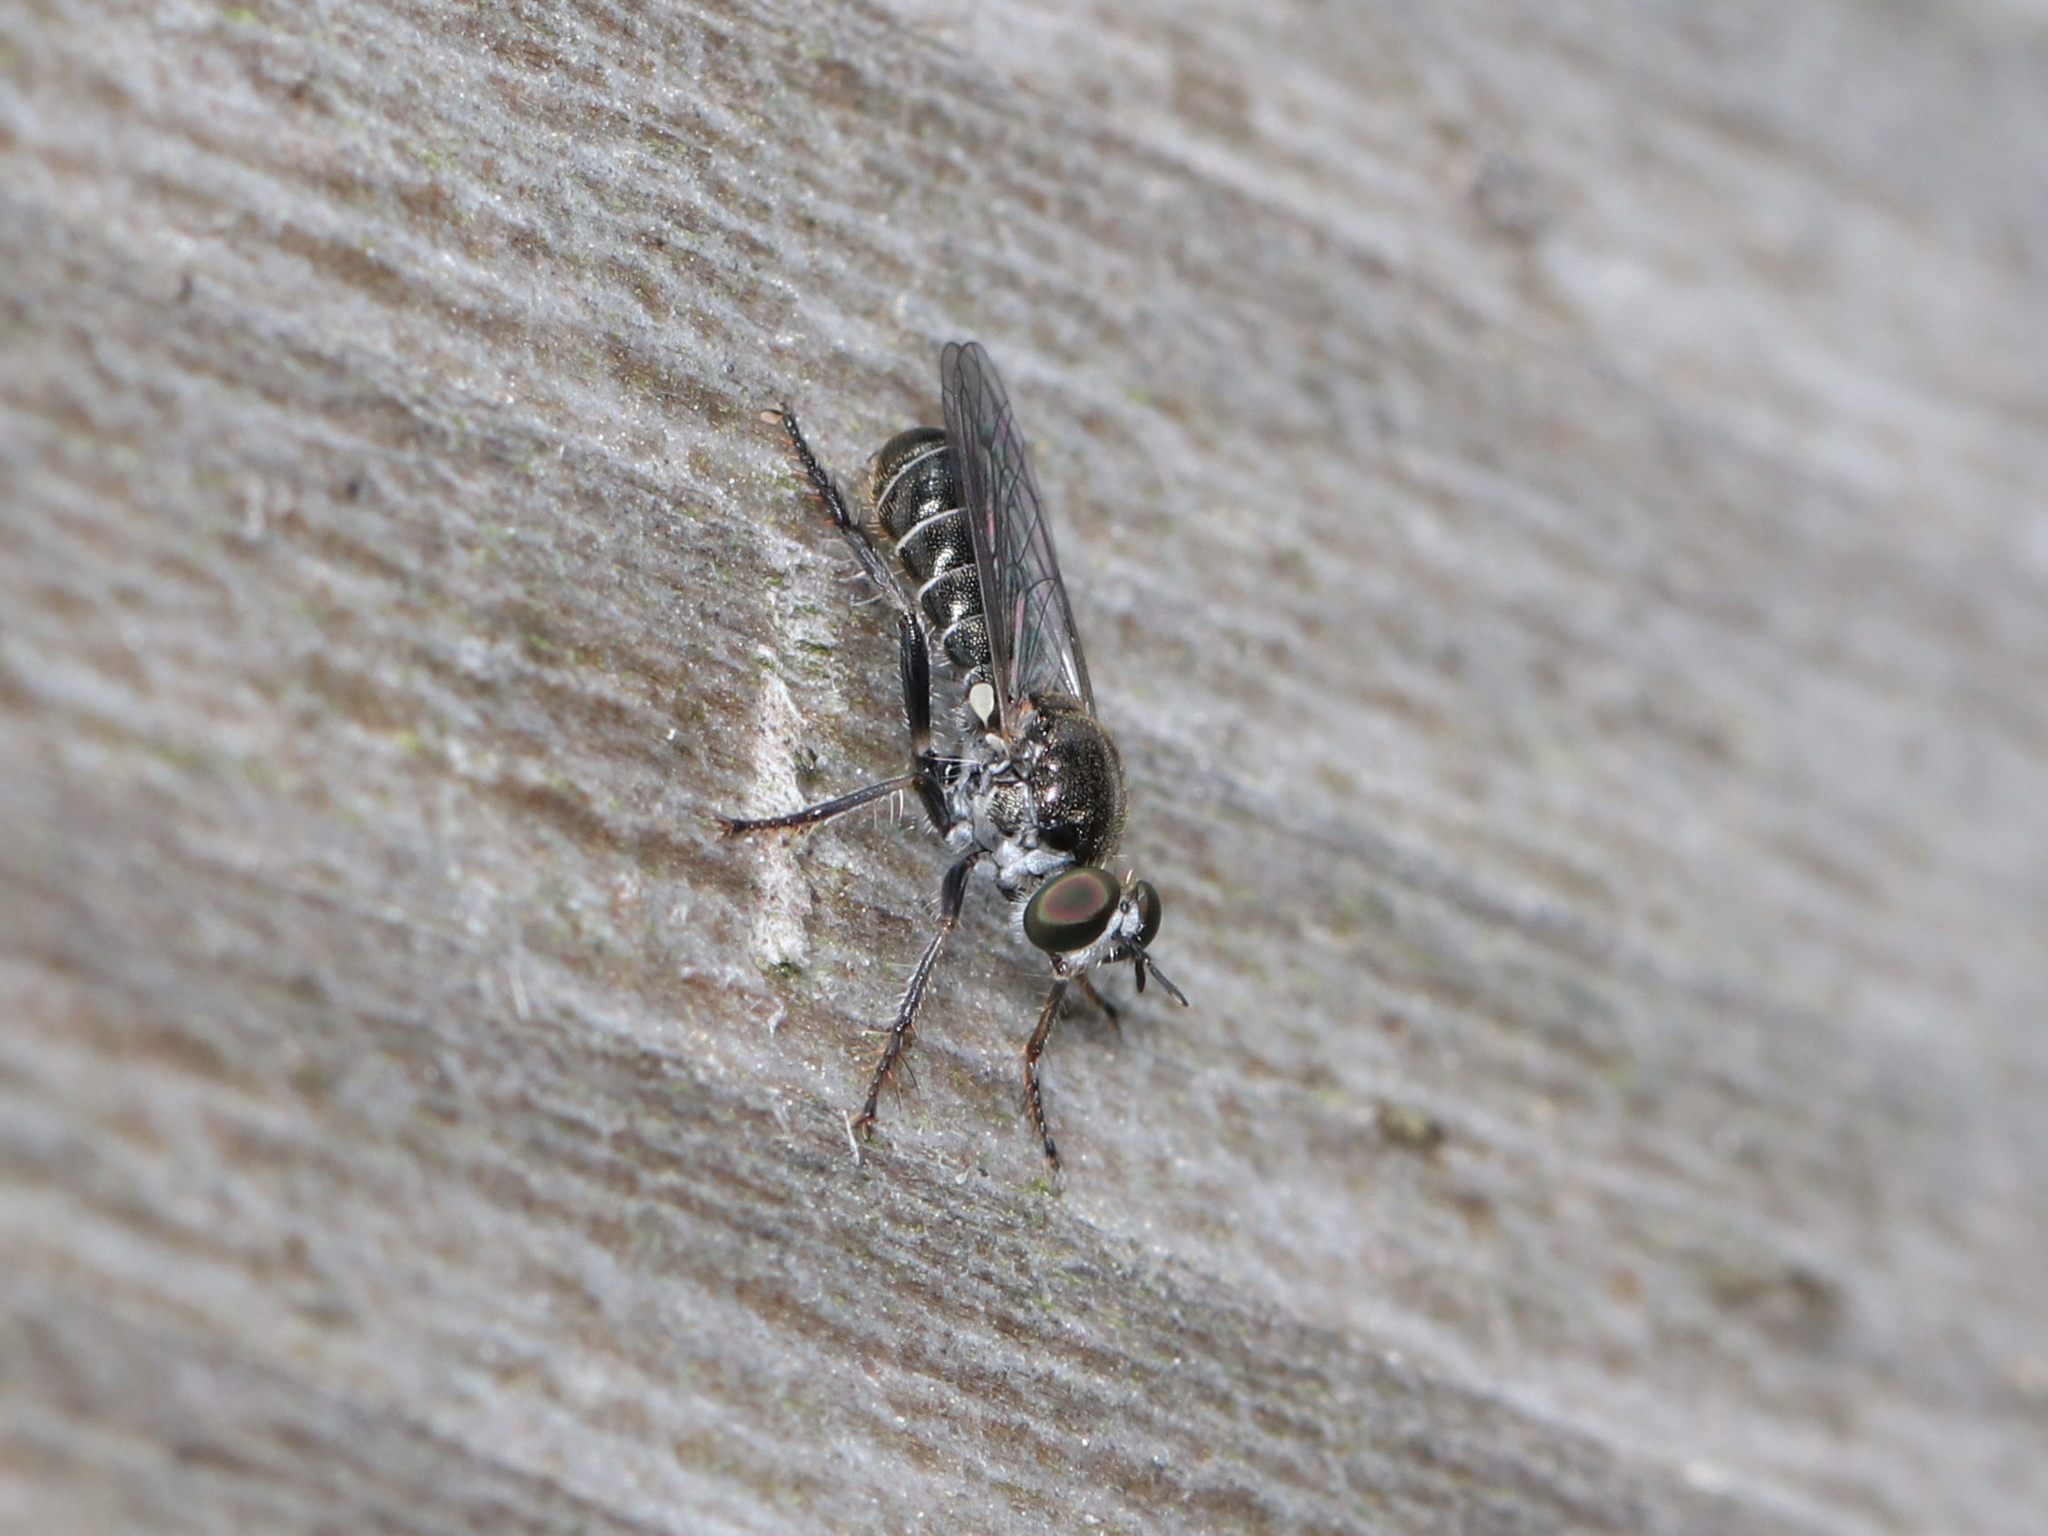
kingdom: Animalia
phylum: Arthropoda
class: Insecta
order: Diptera
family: Asilidae
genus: Atomosia
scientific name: Atomosia puella
